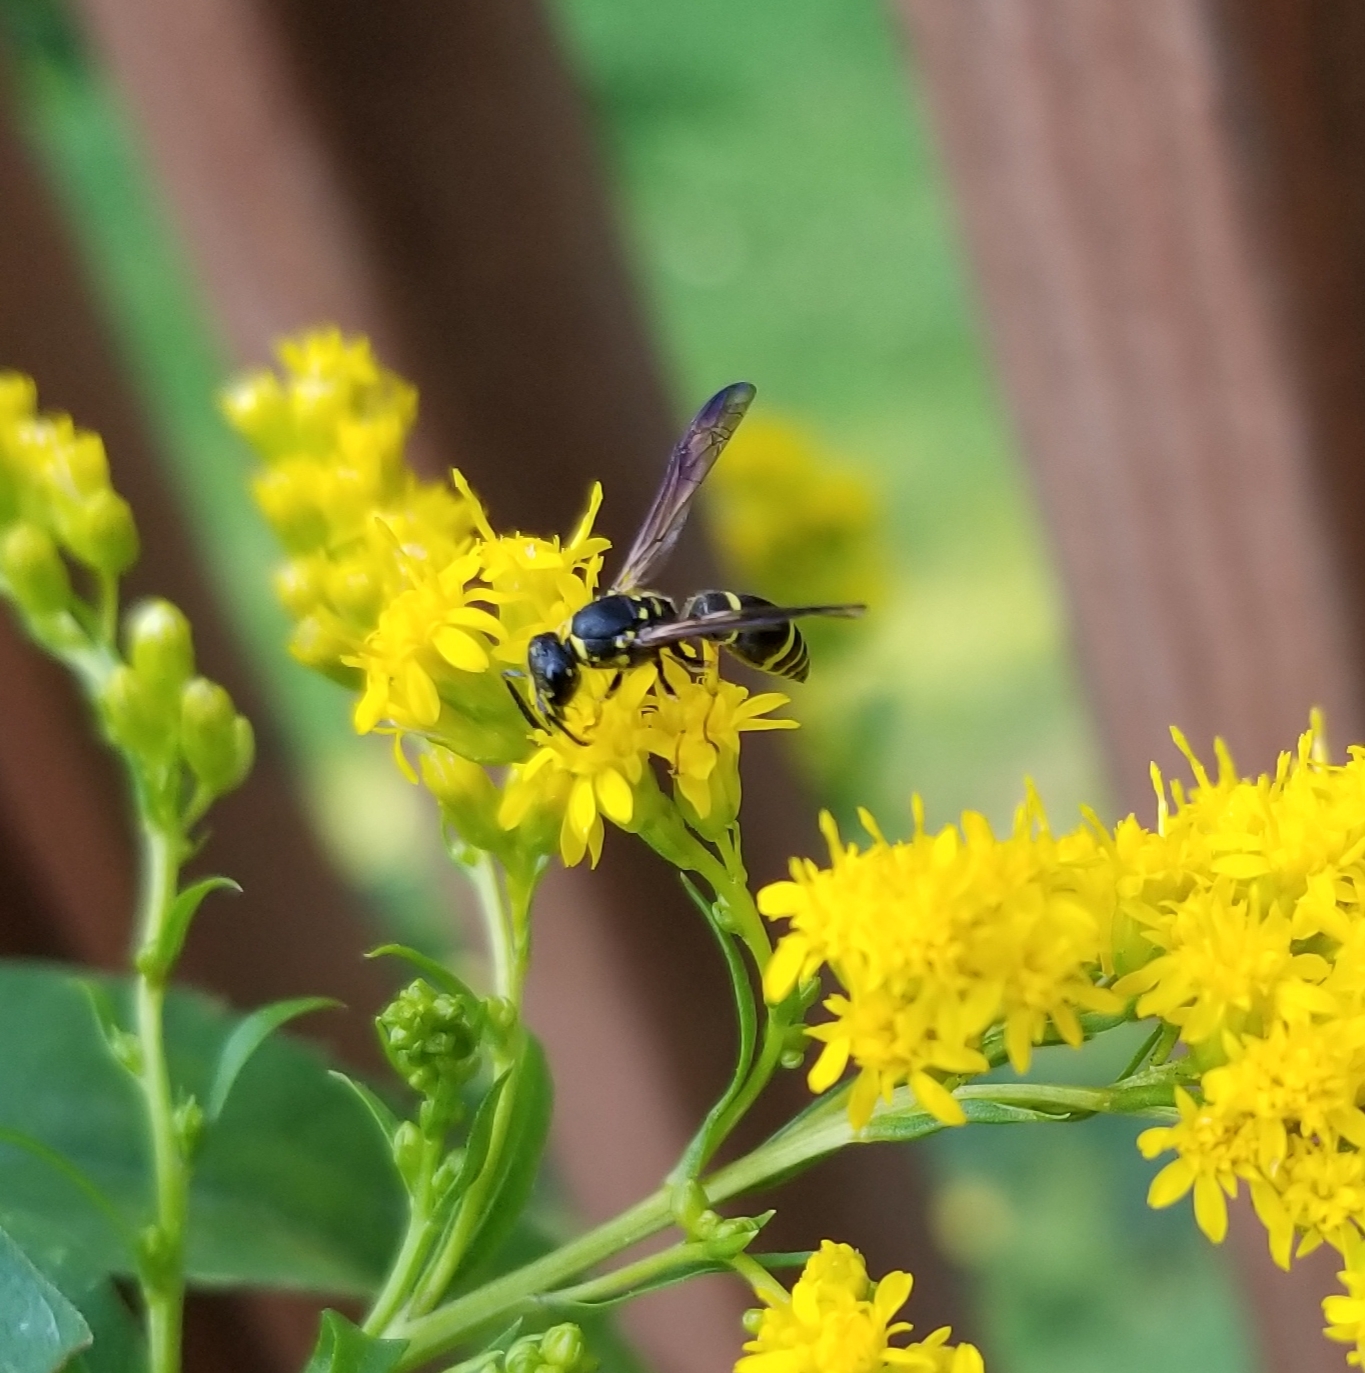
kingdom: Animalia
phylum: Arthropoda
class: Insecta
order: Hymenoptera
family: Vespidae
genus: Ancistrocerus
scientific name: Ancistrocerus adiabatus
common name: Bramble mason wasp
